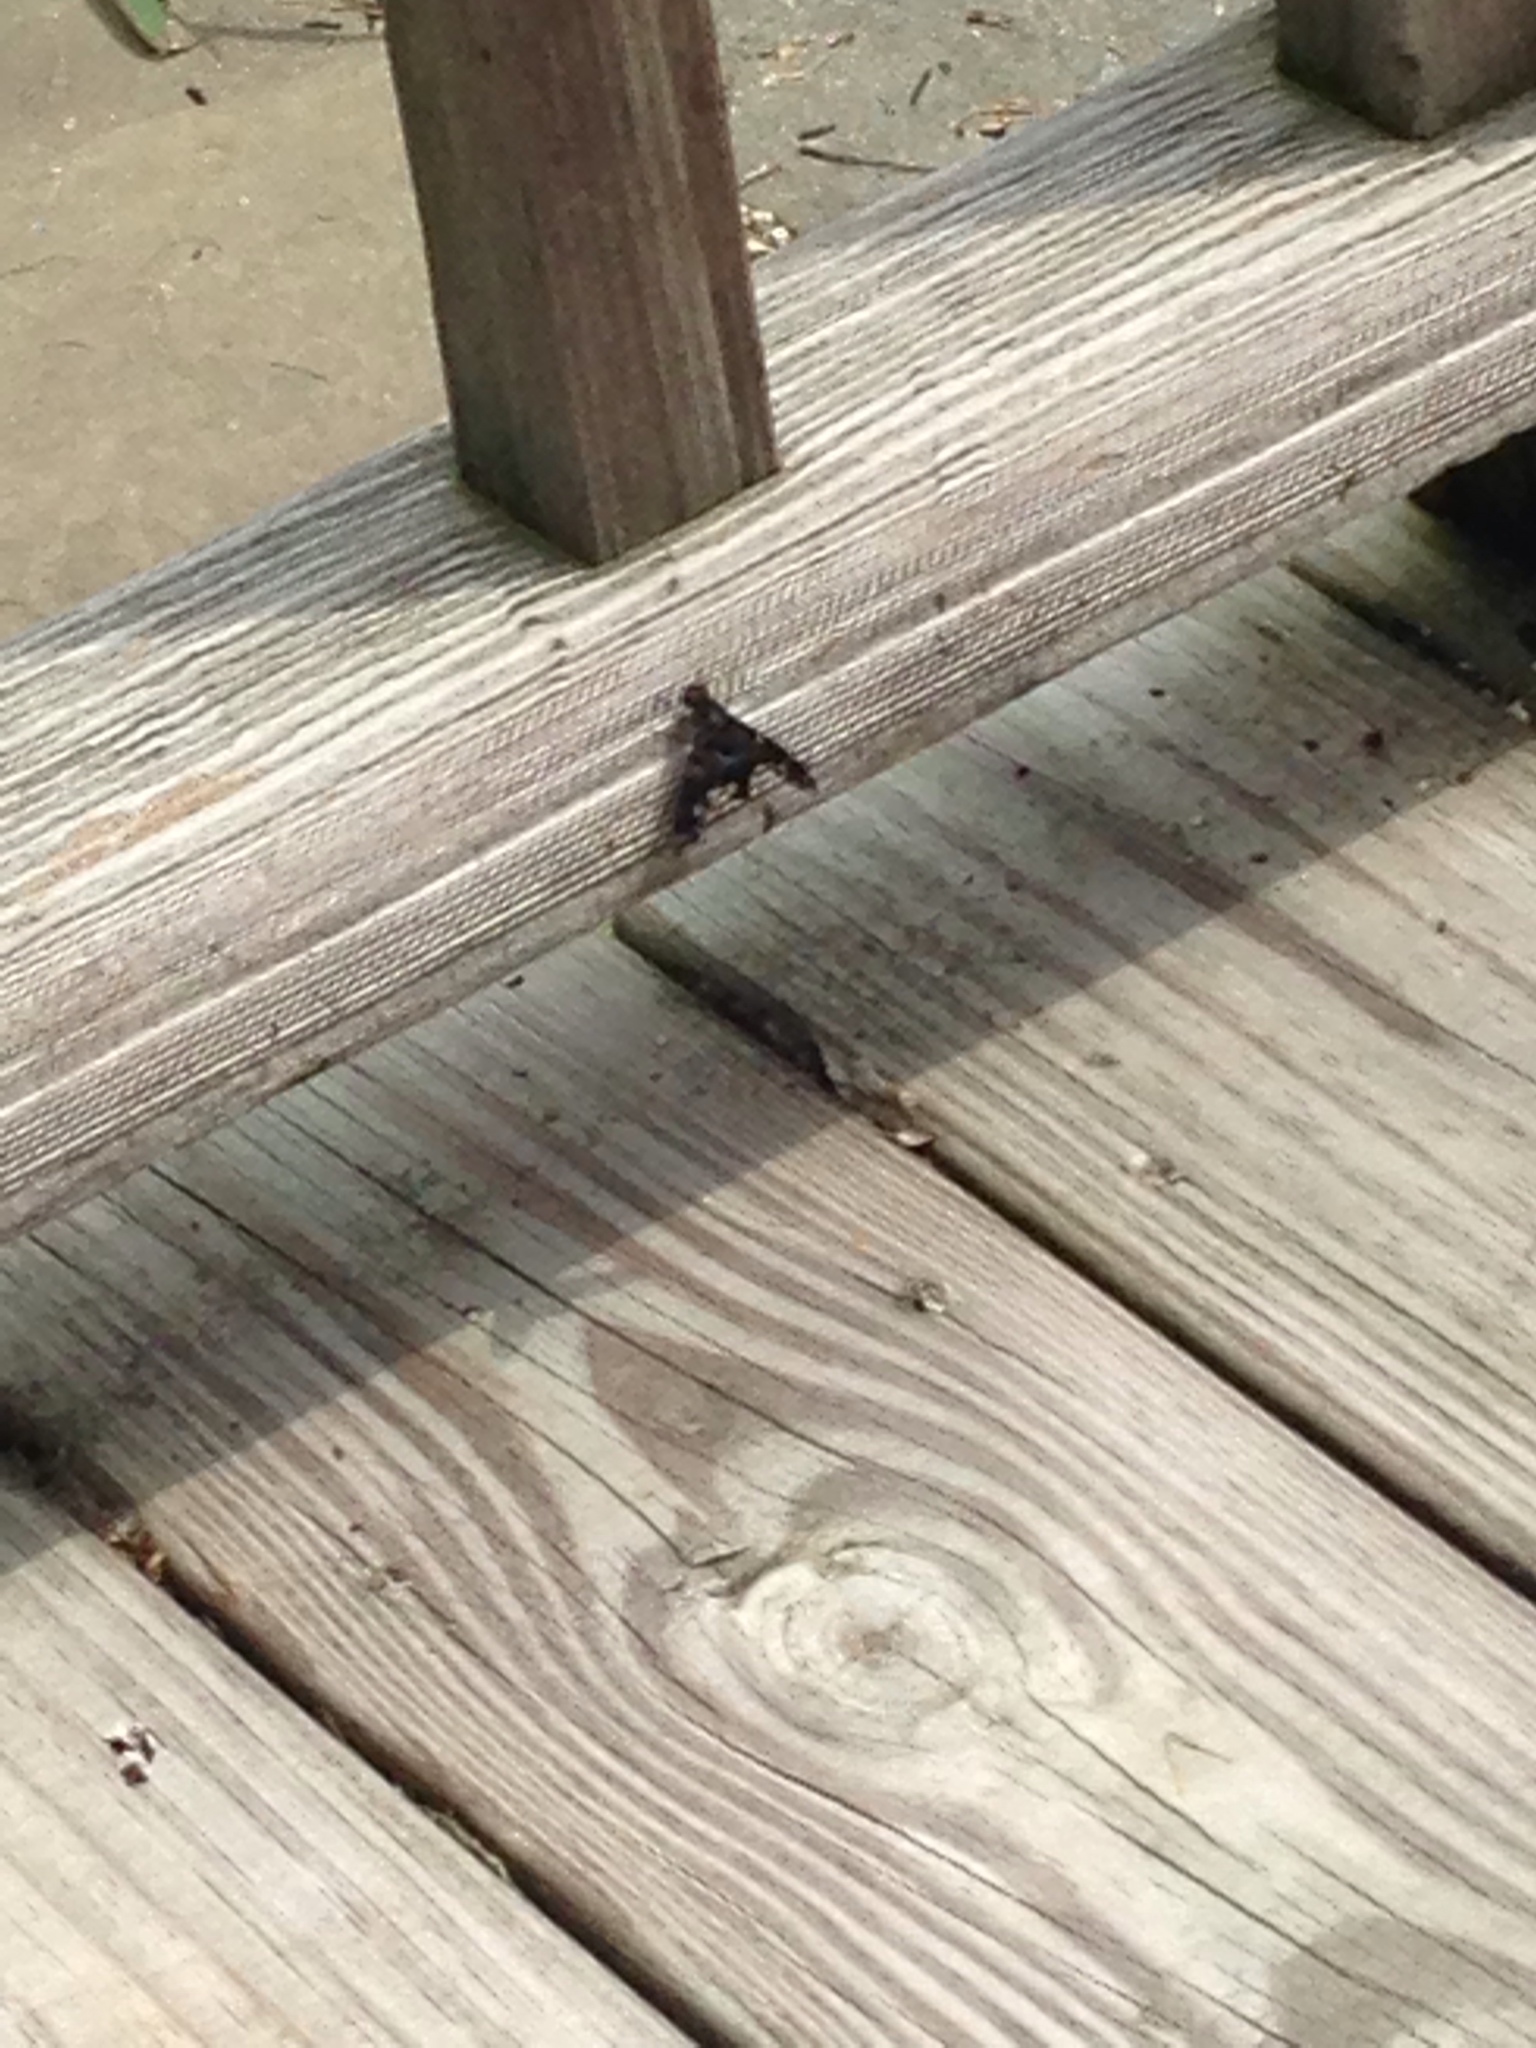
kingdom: Animalia
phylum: Arthropoda
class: Insecta
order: Diptera
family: Bombyliidae
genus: Xenox
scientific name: Xenox tigrinus
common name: Tiger bee fly
